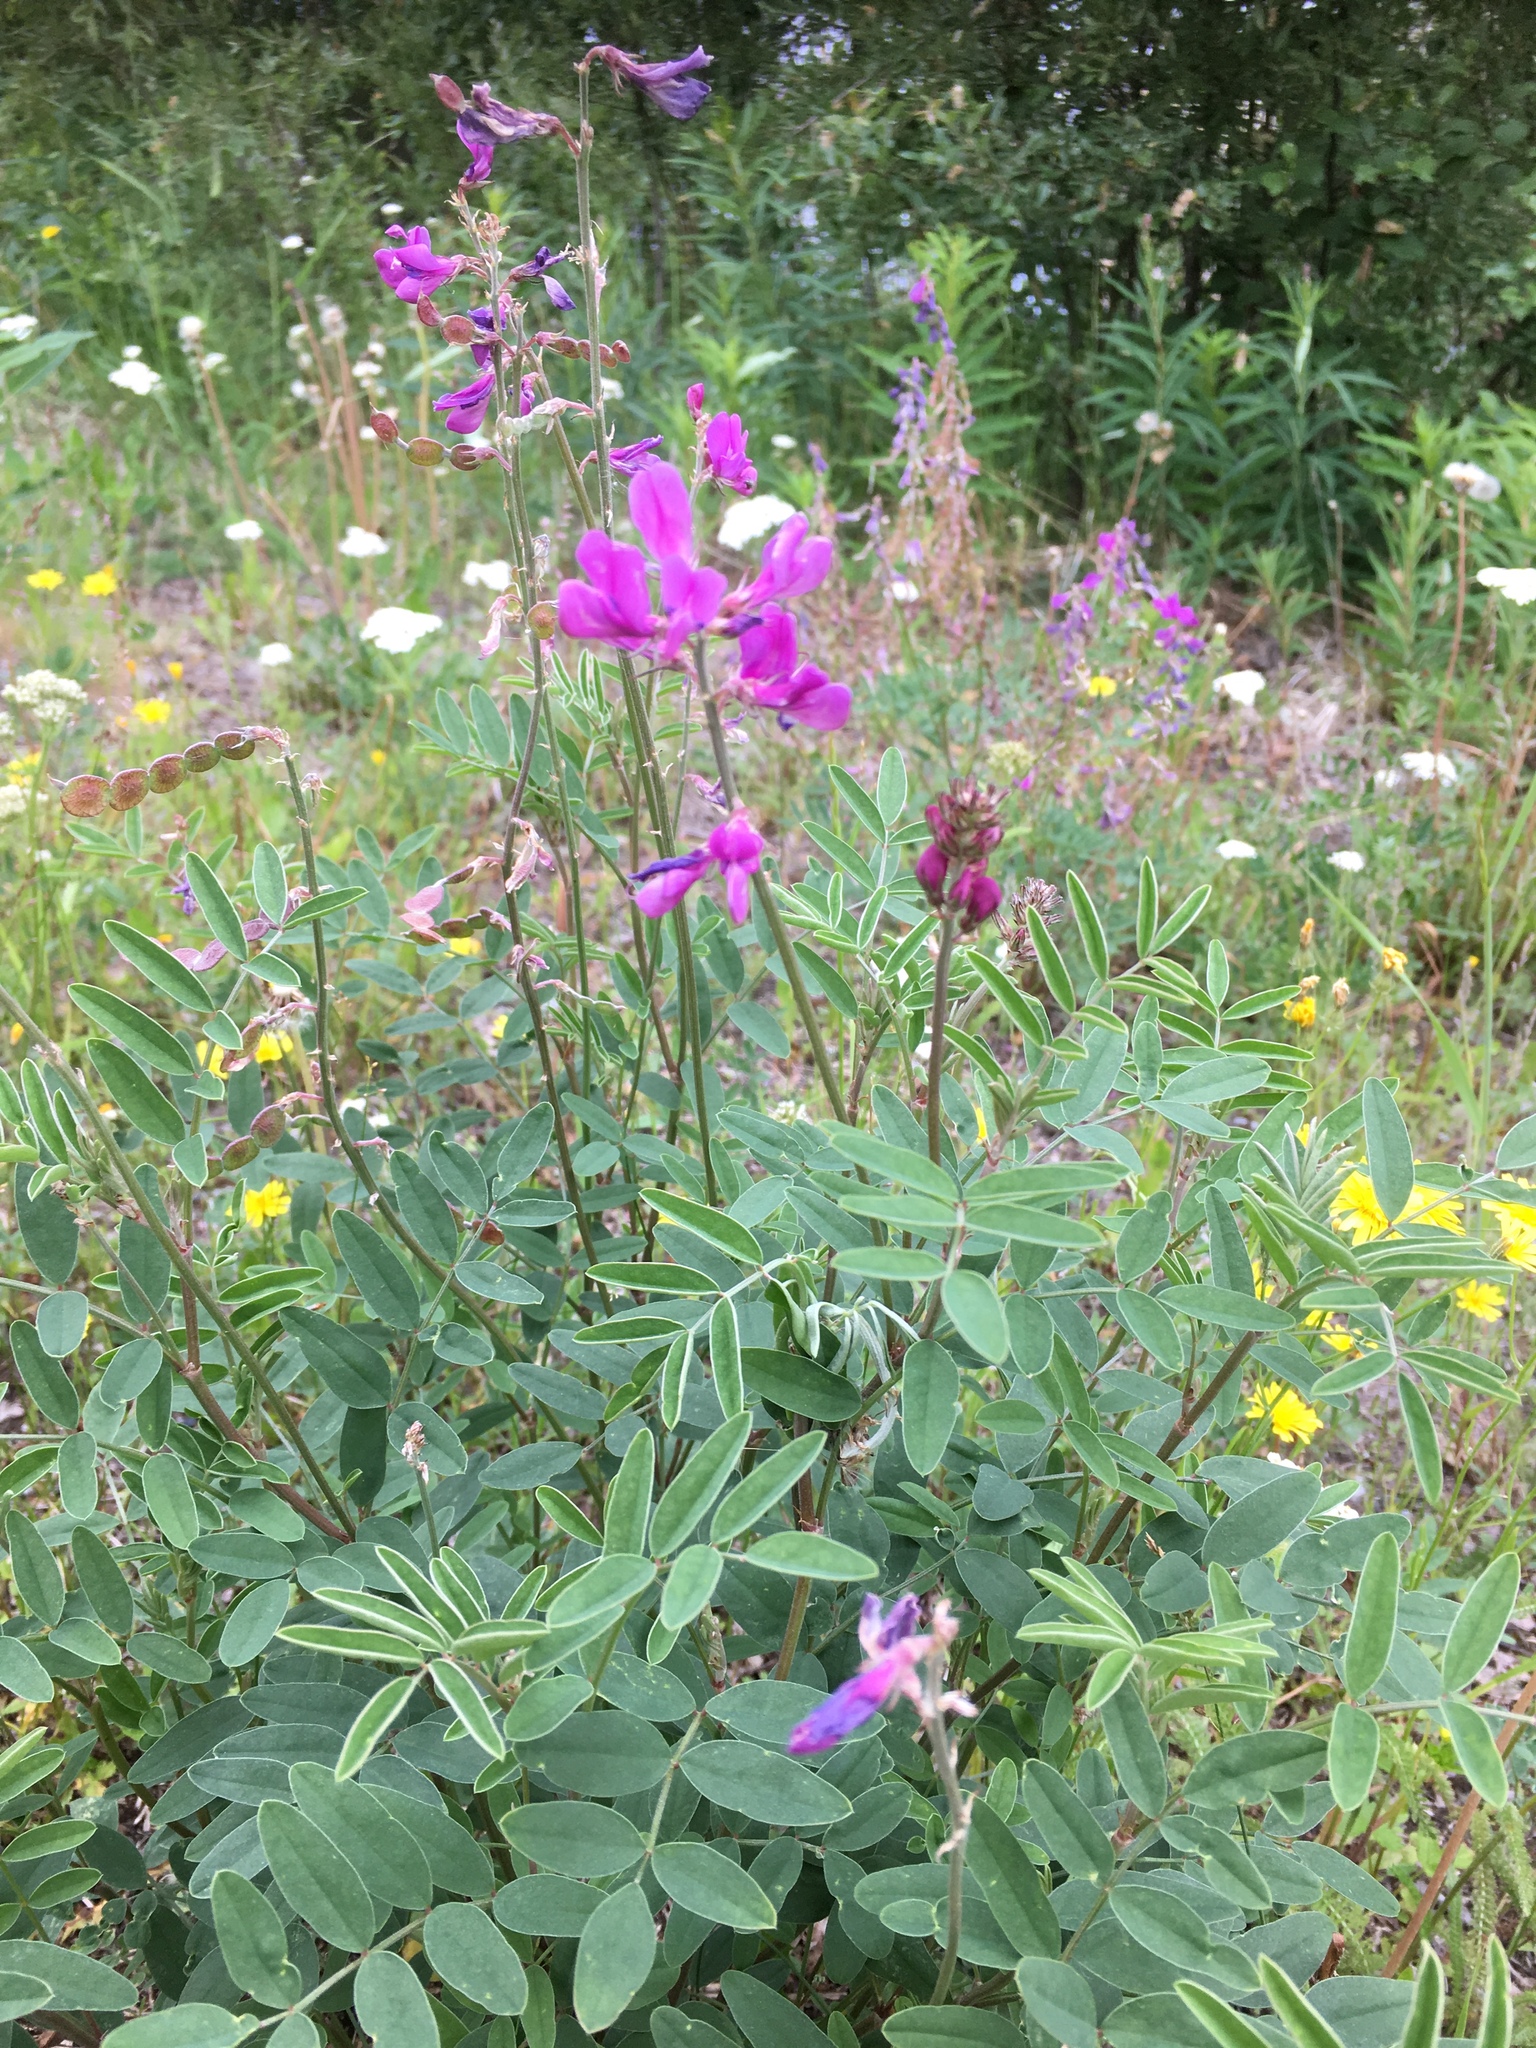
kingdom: Plantae
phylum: Tracheophyta
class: Magnoliopsida
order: Fabales
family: Fabaceae
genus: Hedysarum
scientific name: Hedysarum boreale
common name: Northern sweet-vetch
